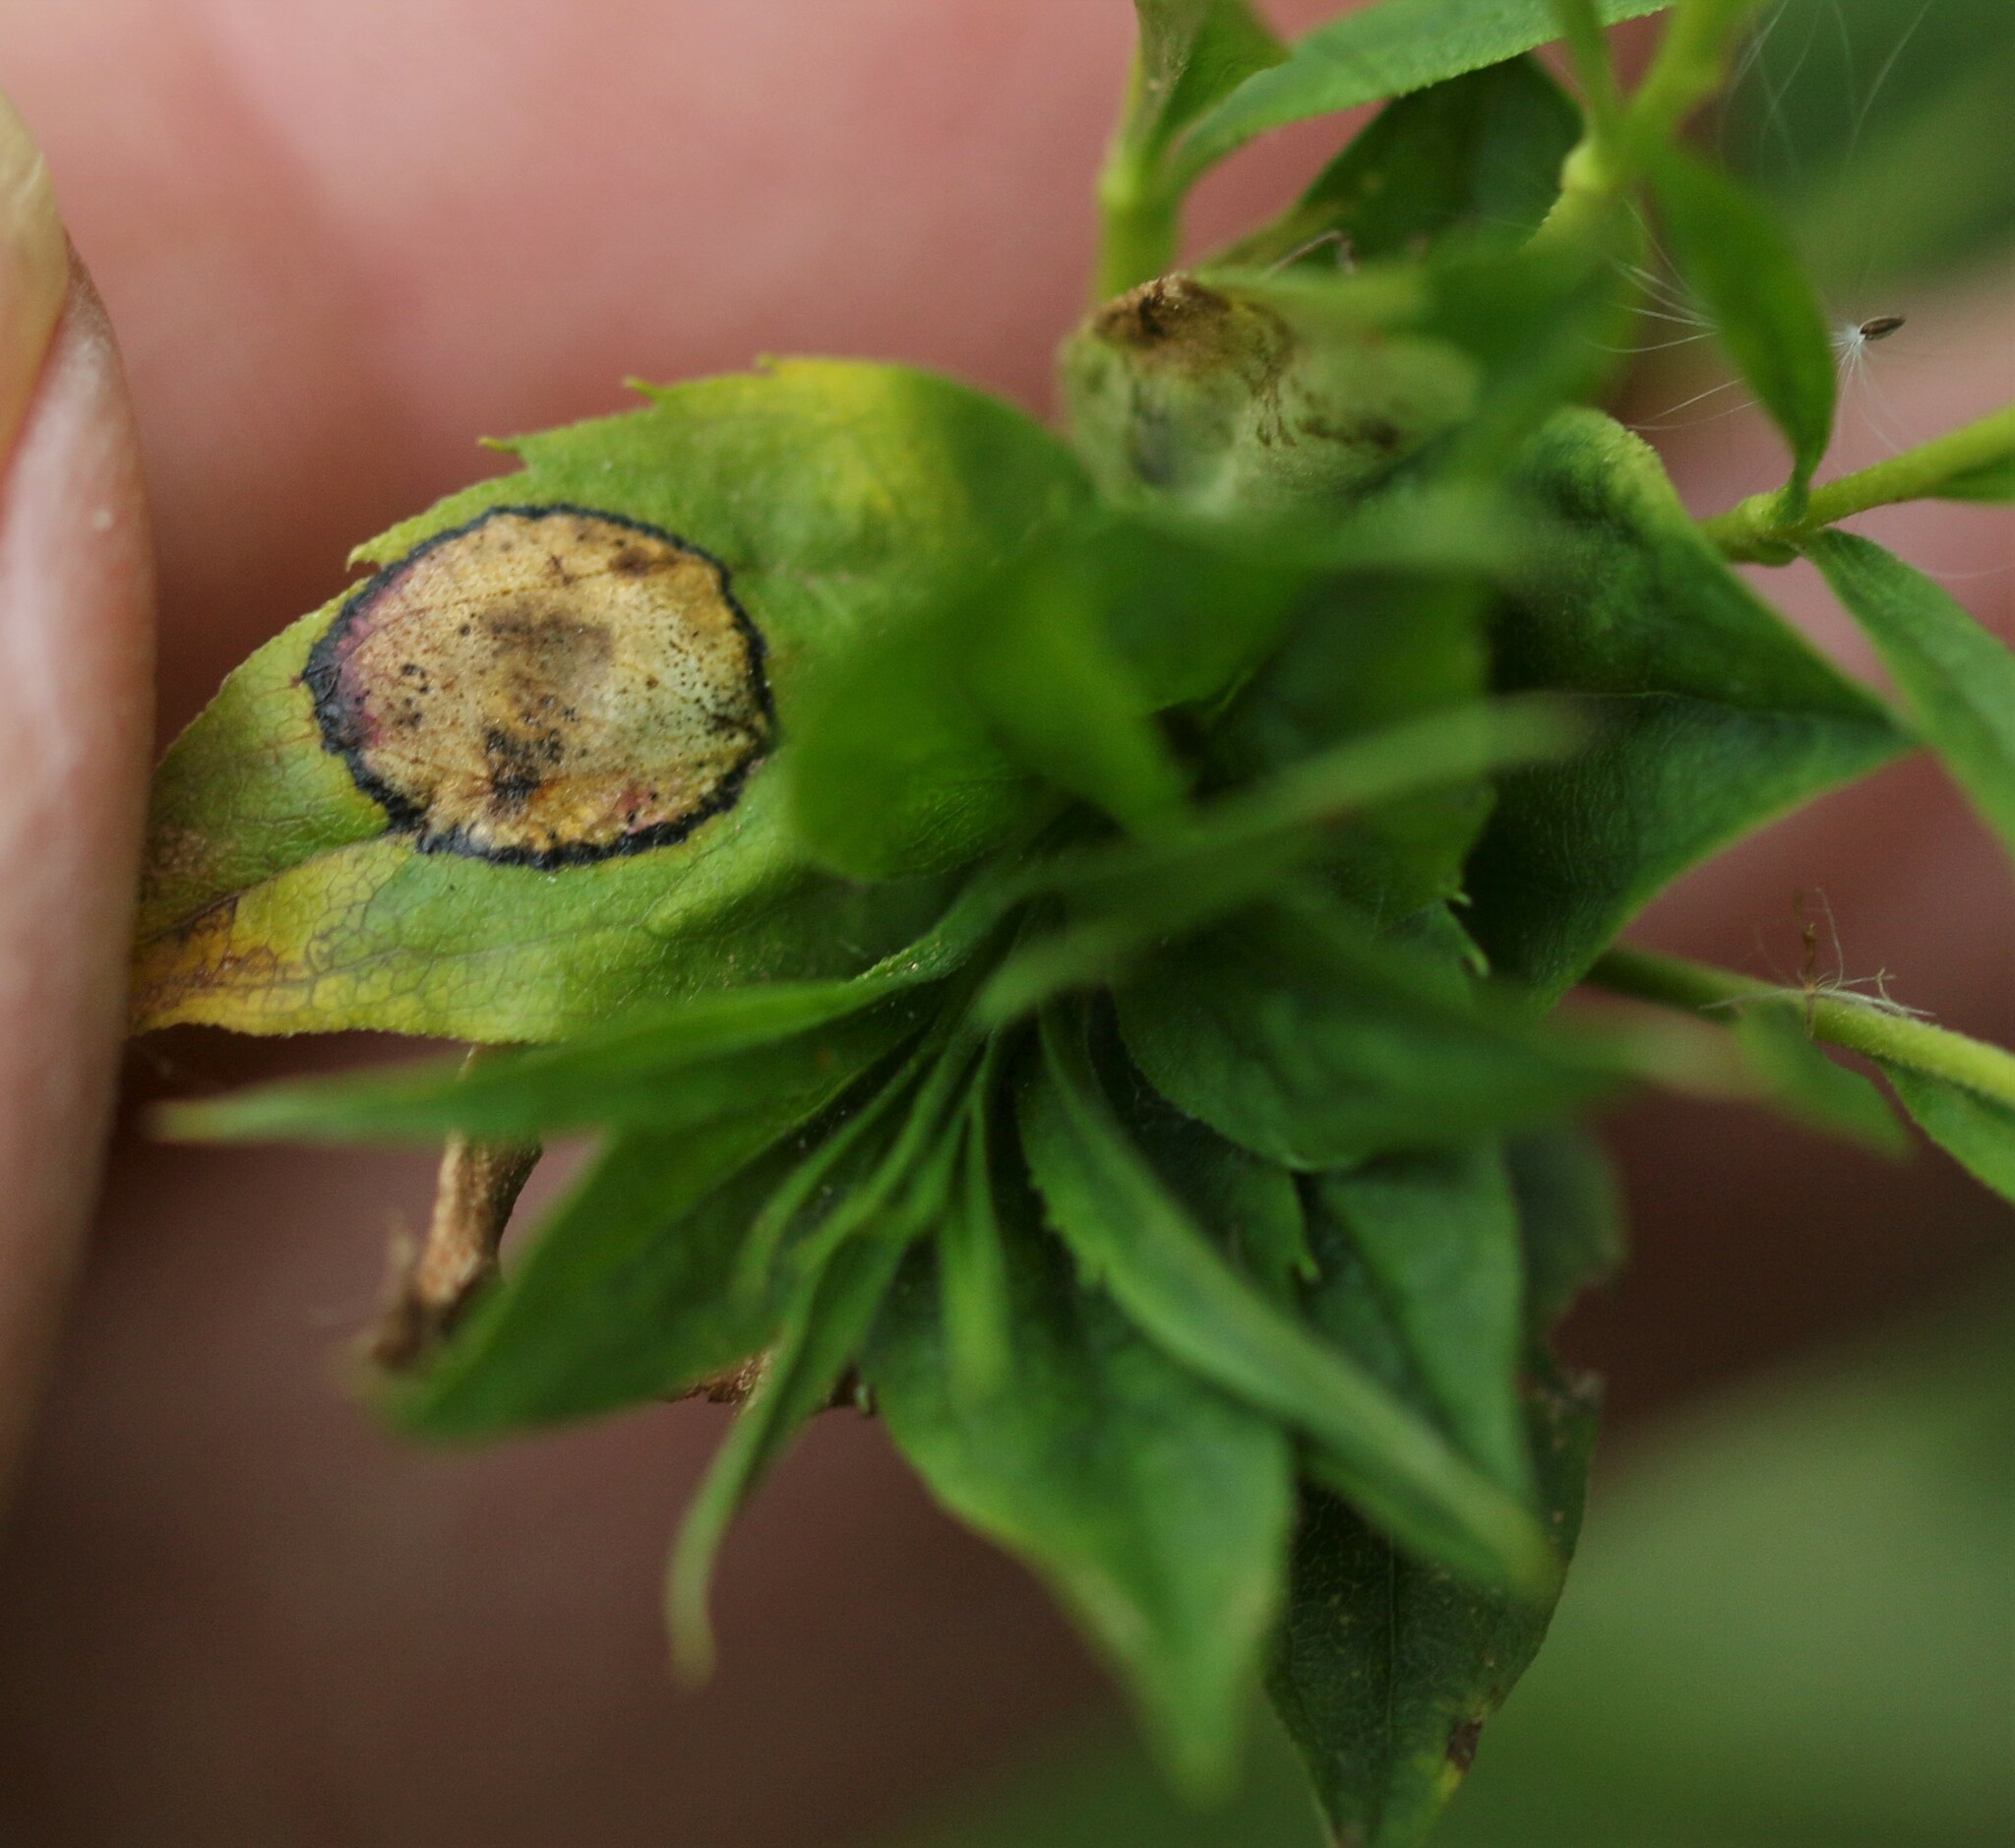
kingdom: Animalia
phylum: Arthropoda
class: Insecta
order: Diptera
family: Cecidomyiidae
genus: Asteromyia
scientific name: Asteromyia carbonifera
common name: Carbonifera goldenrod gall midge
